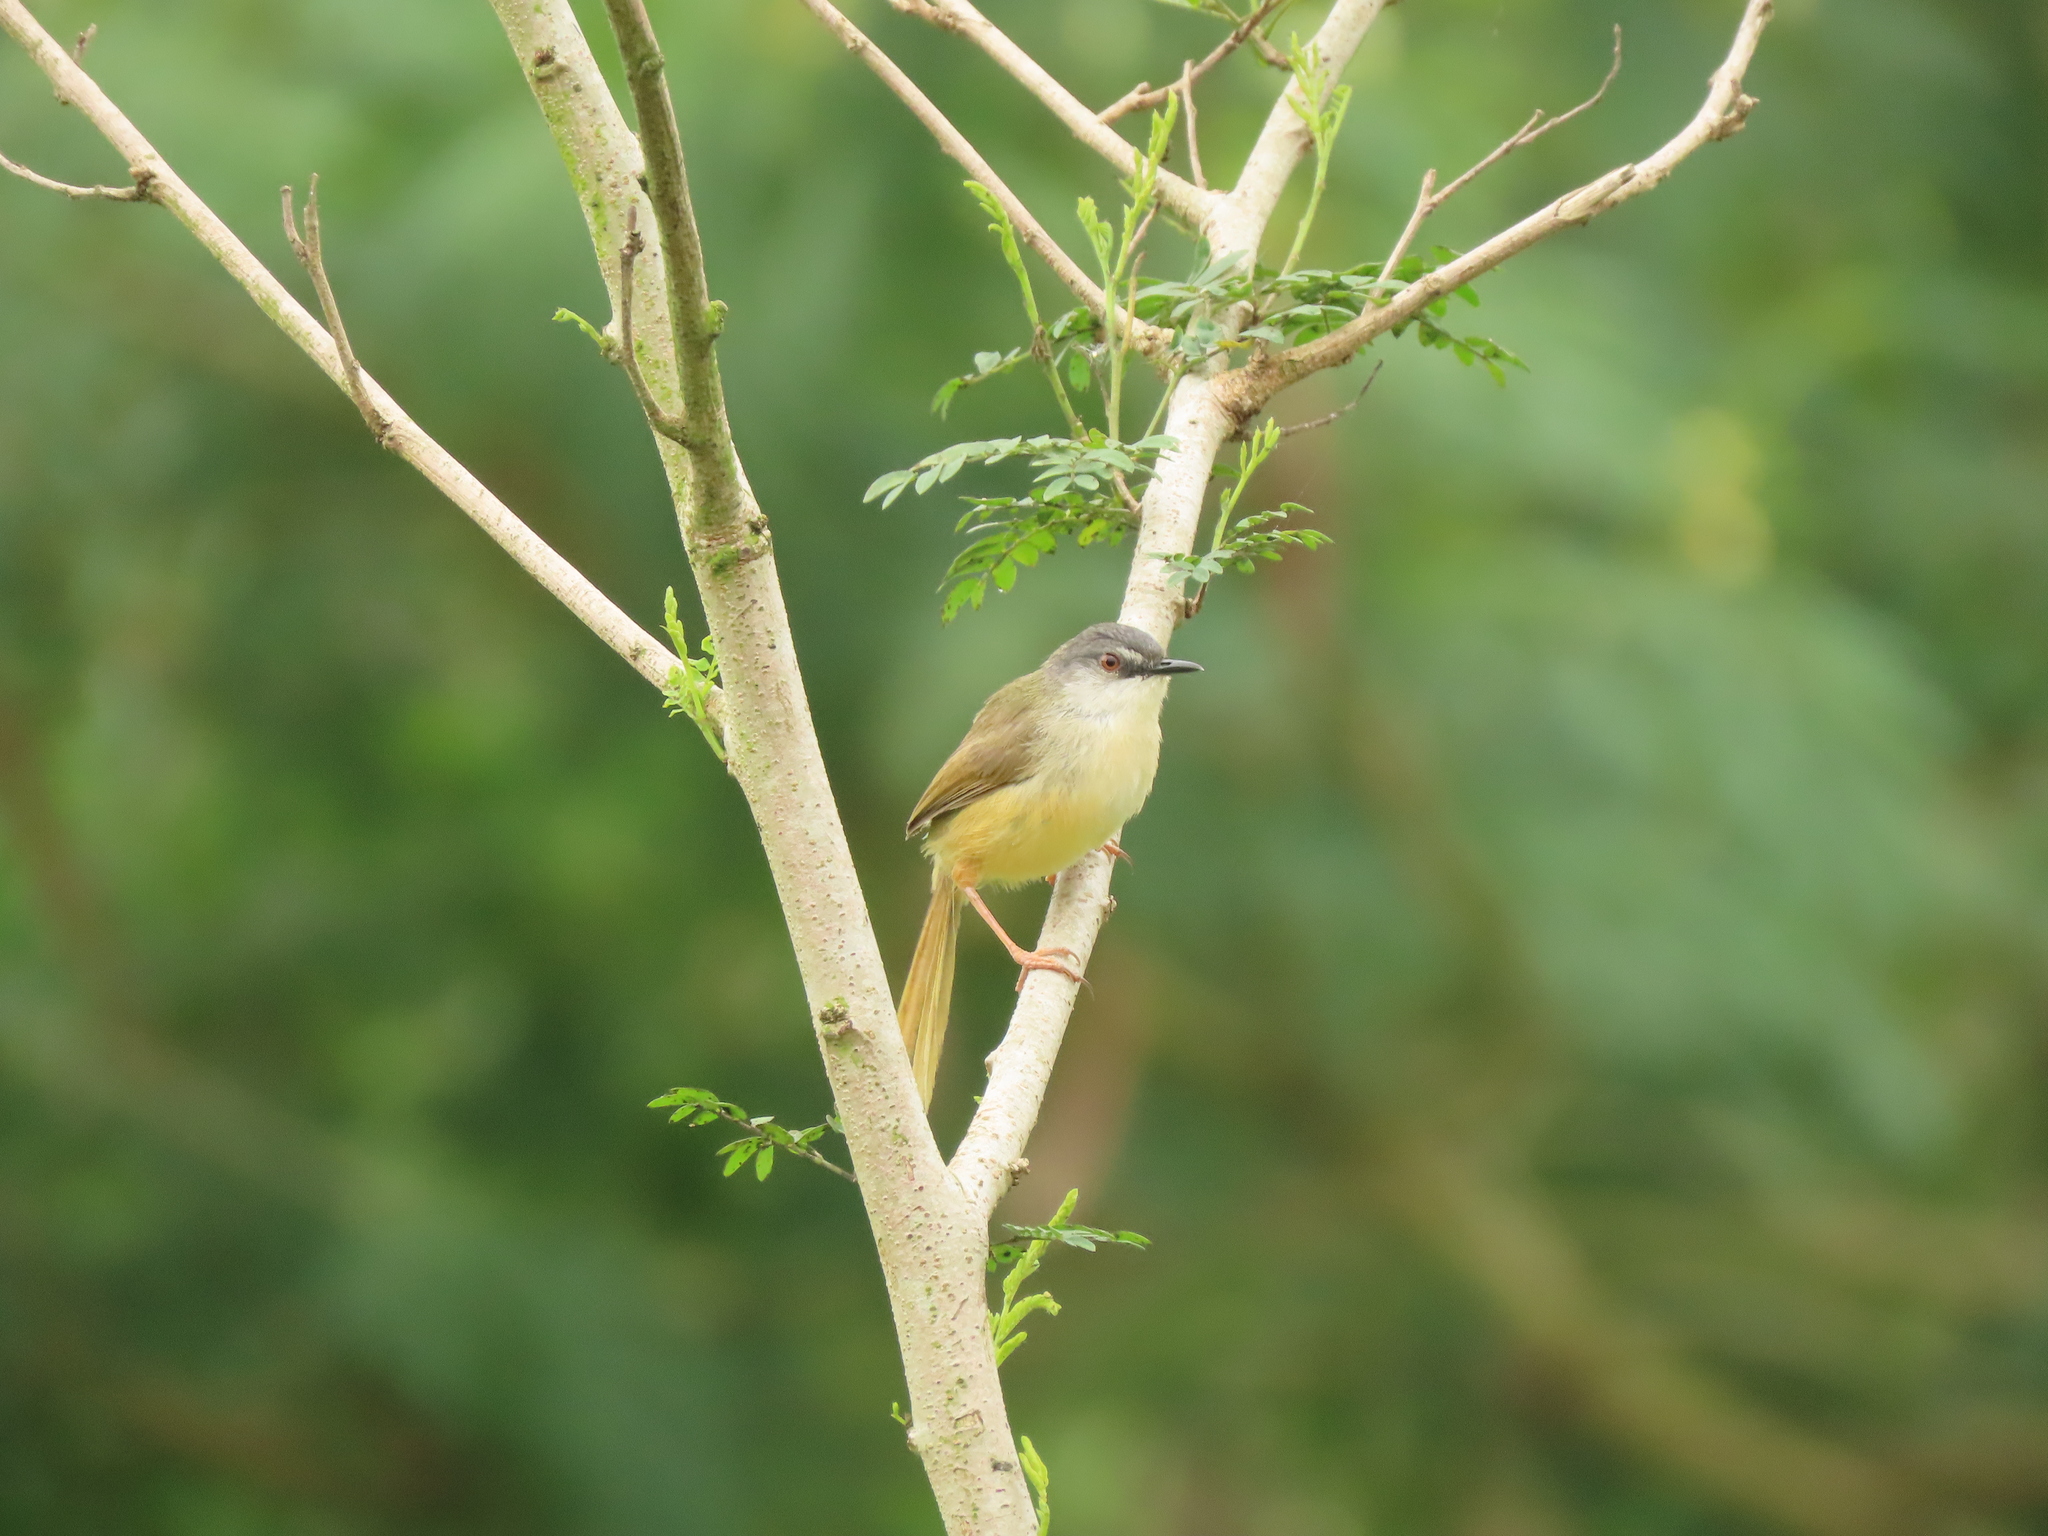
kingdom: Animalia
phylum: Chordata
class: Aves
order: Passeriformes
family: Cisticolidae
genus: Prinia
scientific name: Prinia flaviventris
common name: Yellow-bellied prinia
